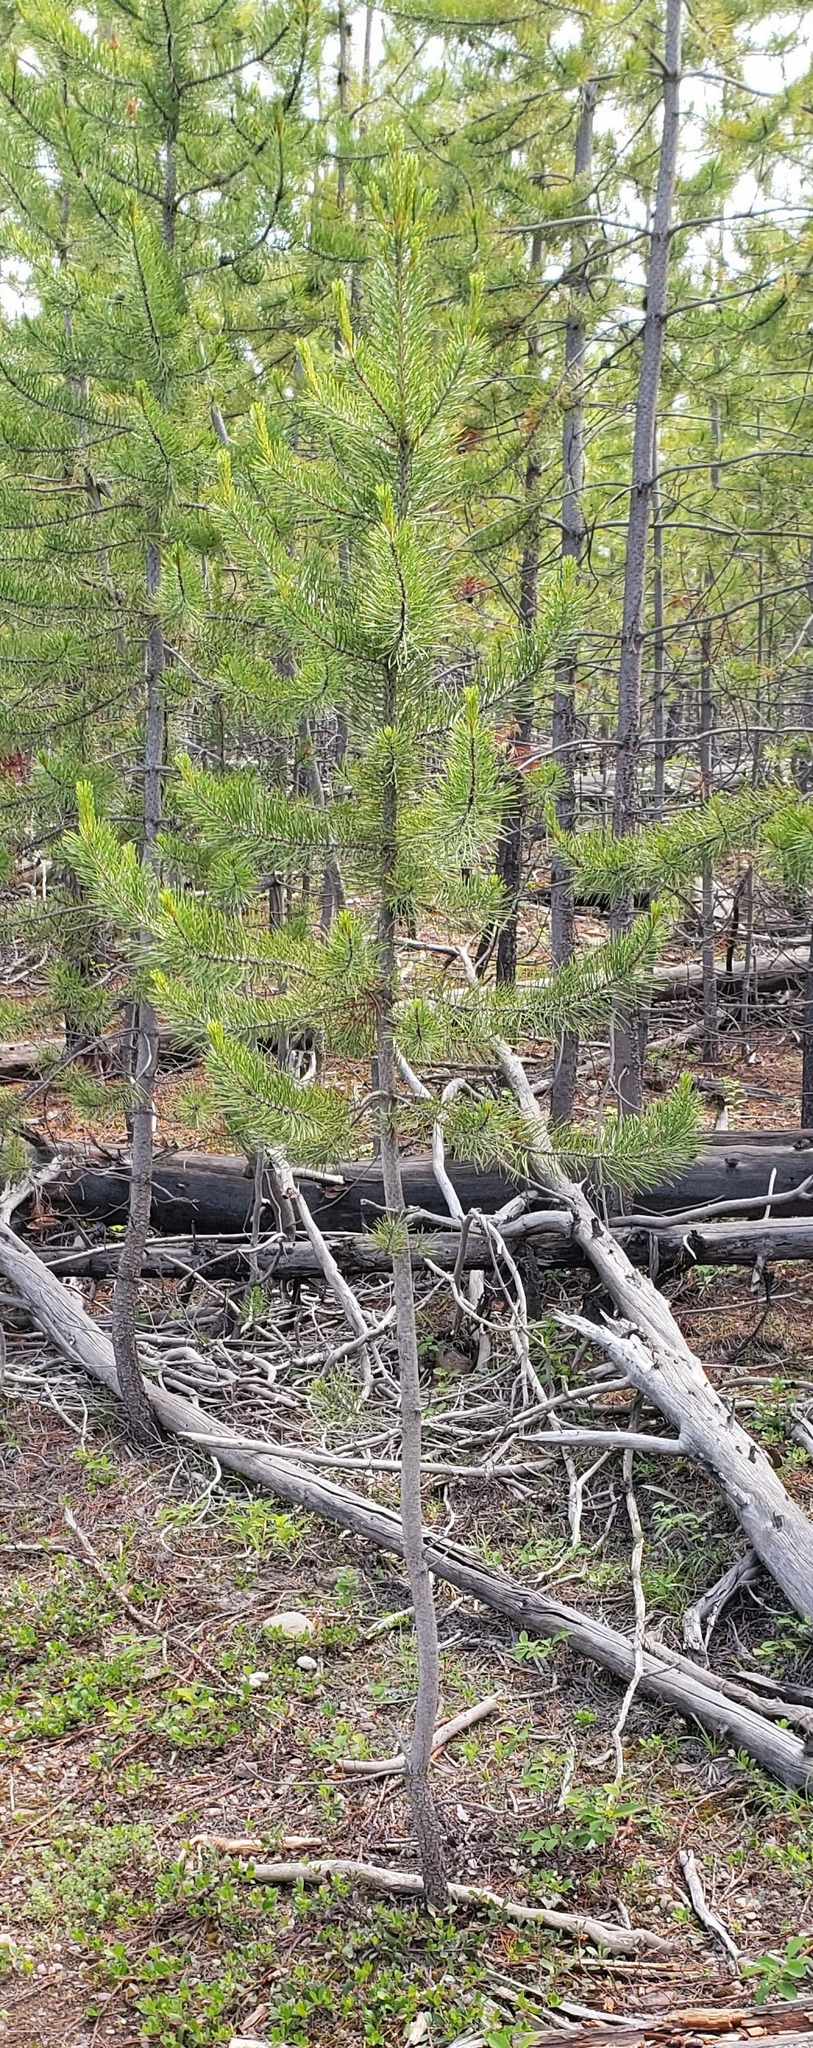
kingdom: Plantae
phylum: Tracheophyta
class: Pinopsida
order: Pinales
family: Pinaceae
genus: Pinus
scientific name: Pinus contorta
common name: Lodgepole pine
